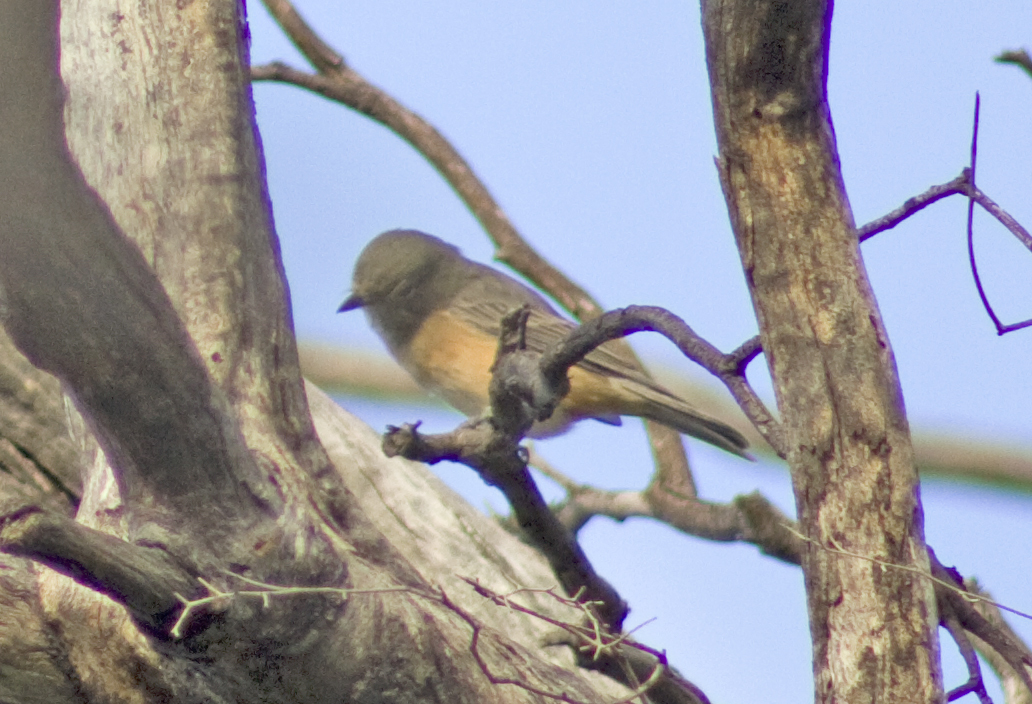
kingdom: Animalia
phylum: Chordata
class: Aves
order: Passeriformes
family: Pachycephalidae
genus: Pachycephala
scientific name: Pachycephala rufiventris
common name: Rufous whistler
